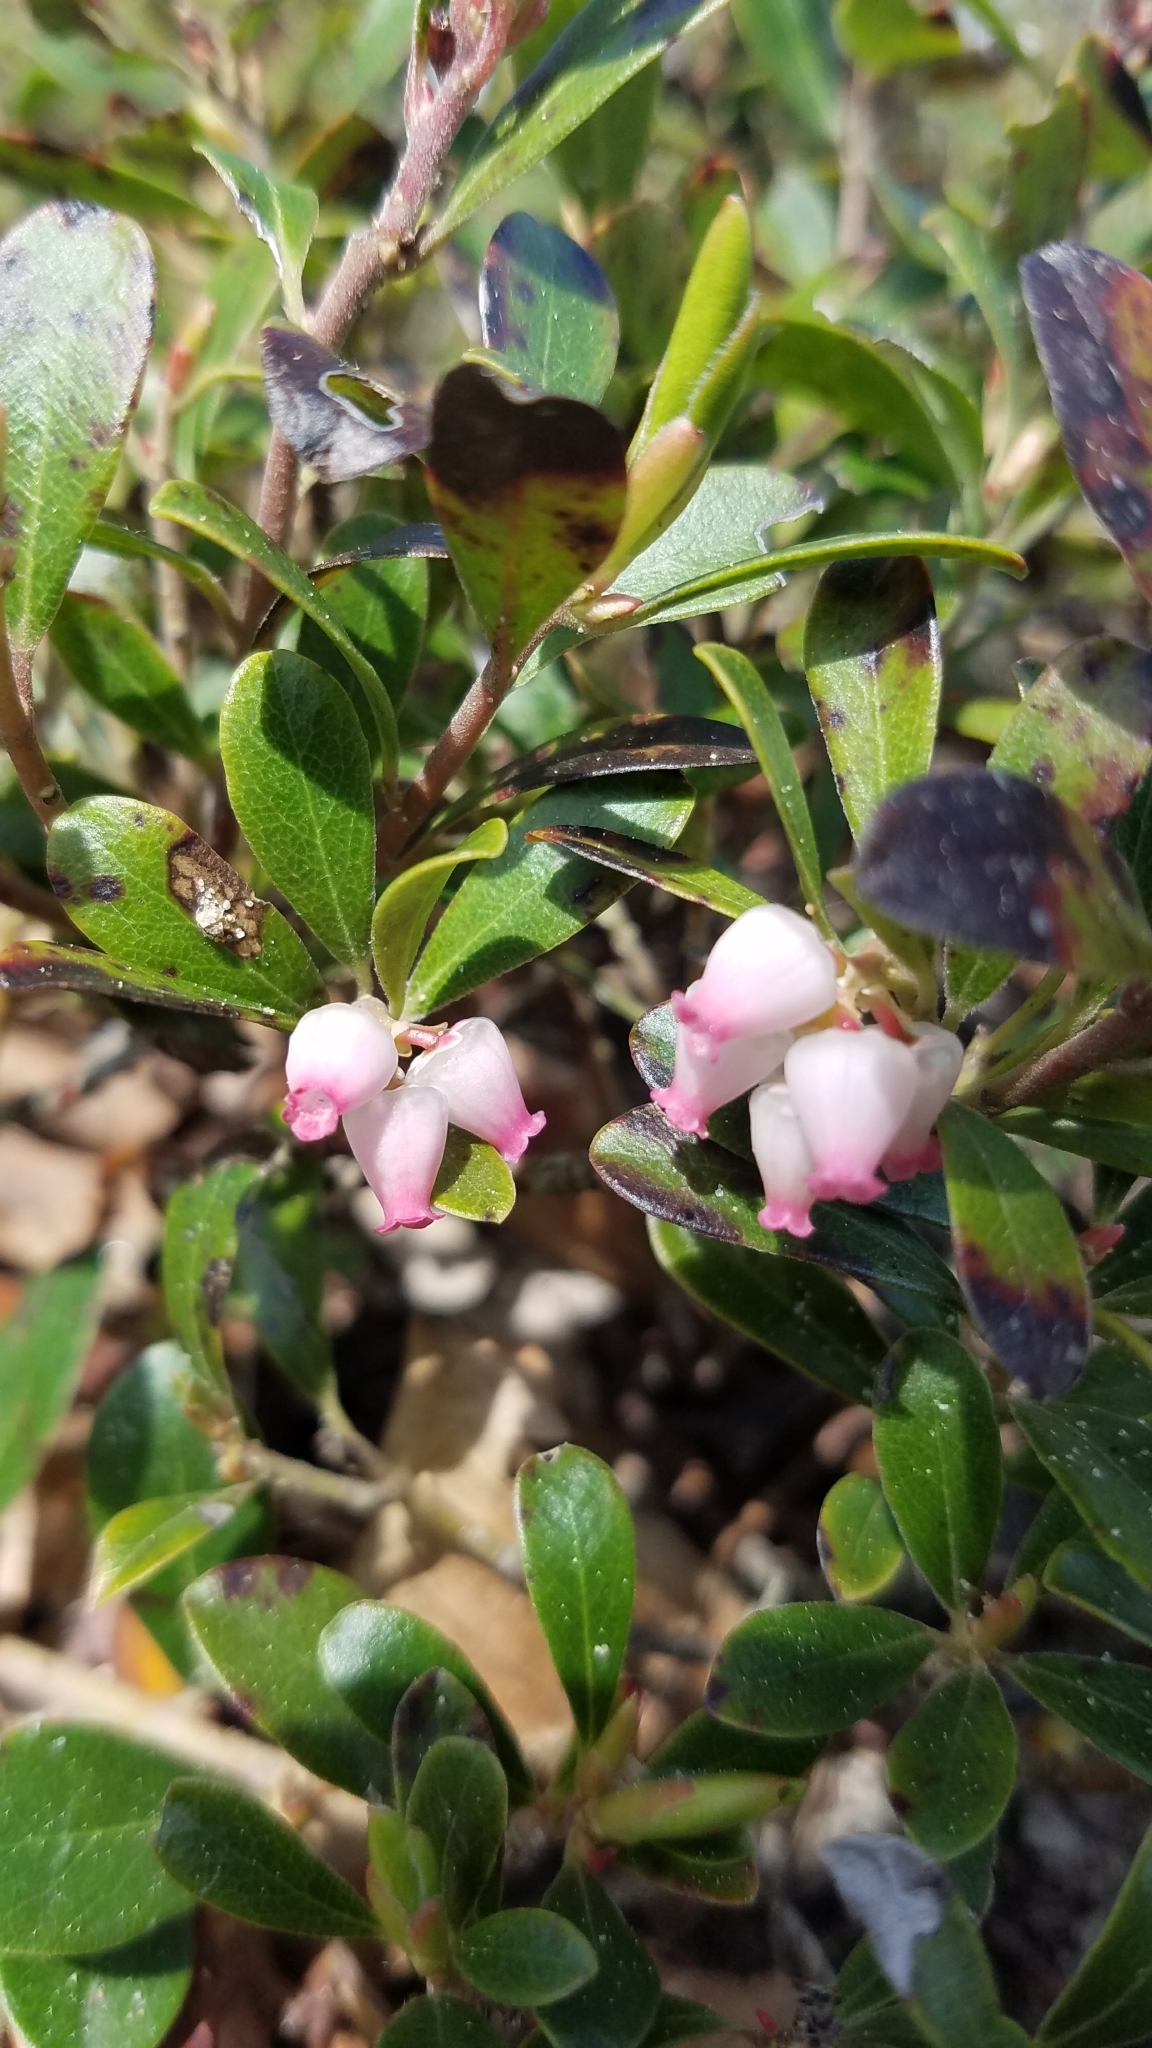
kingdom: Plantae
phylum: Tracheophyta
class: Magnoliopsida
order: Ericales
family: Ericaceae
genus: Arctostaphylos
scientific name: Arctostaphylos uva-ursi
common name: Bearberry
